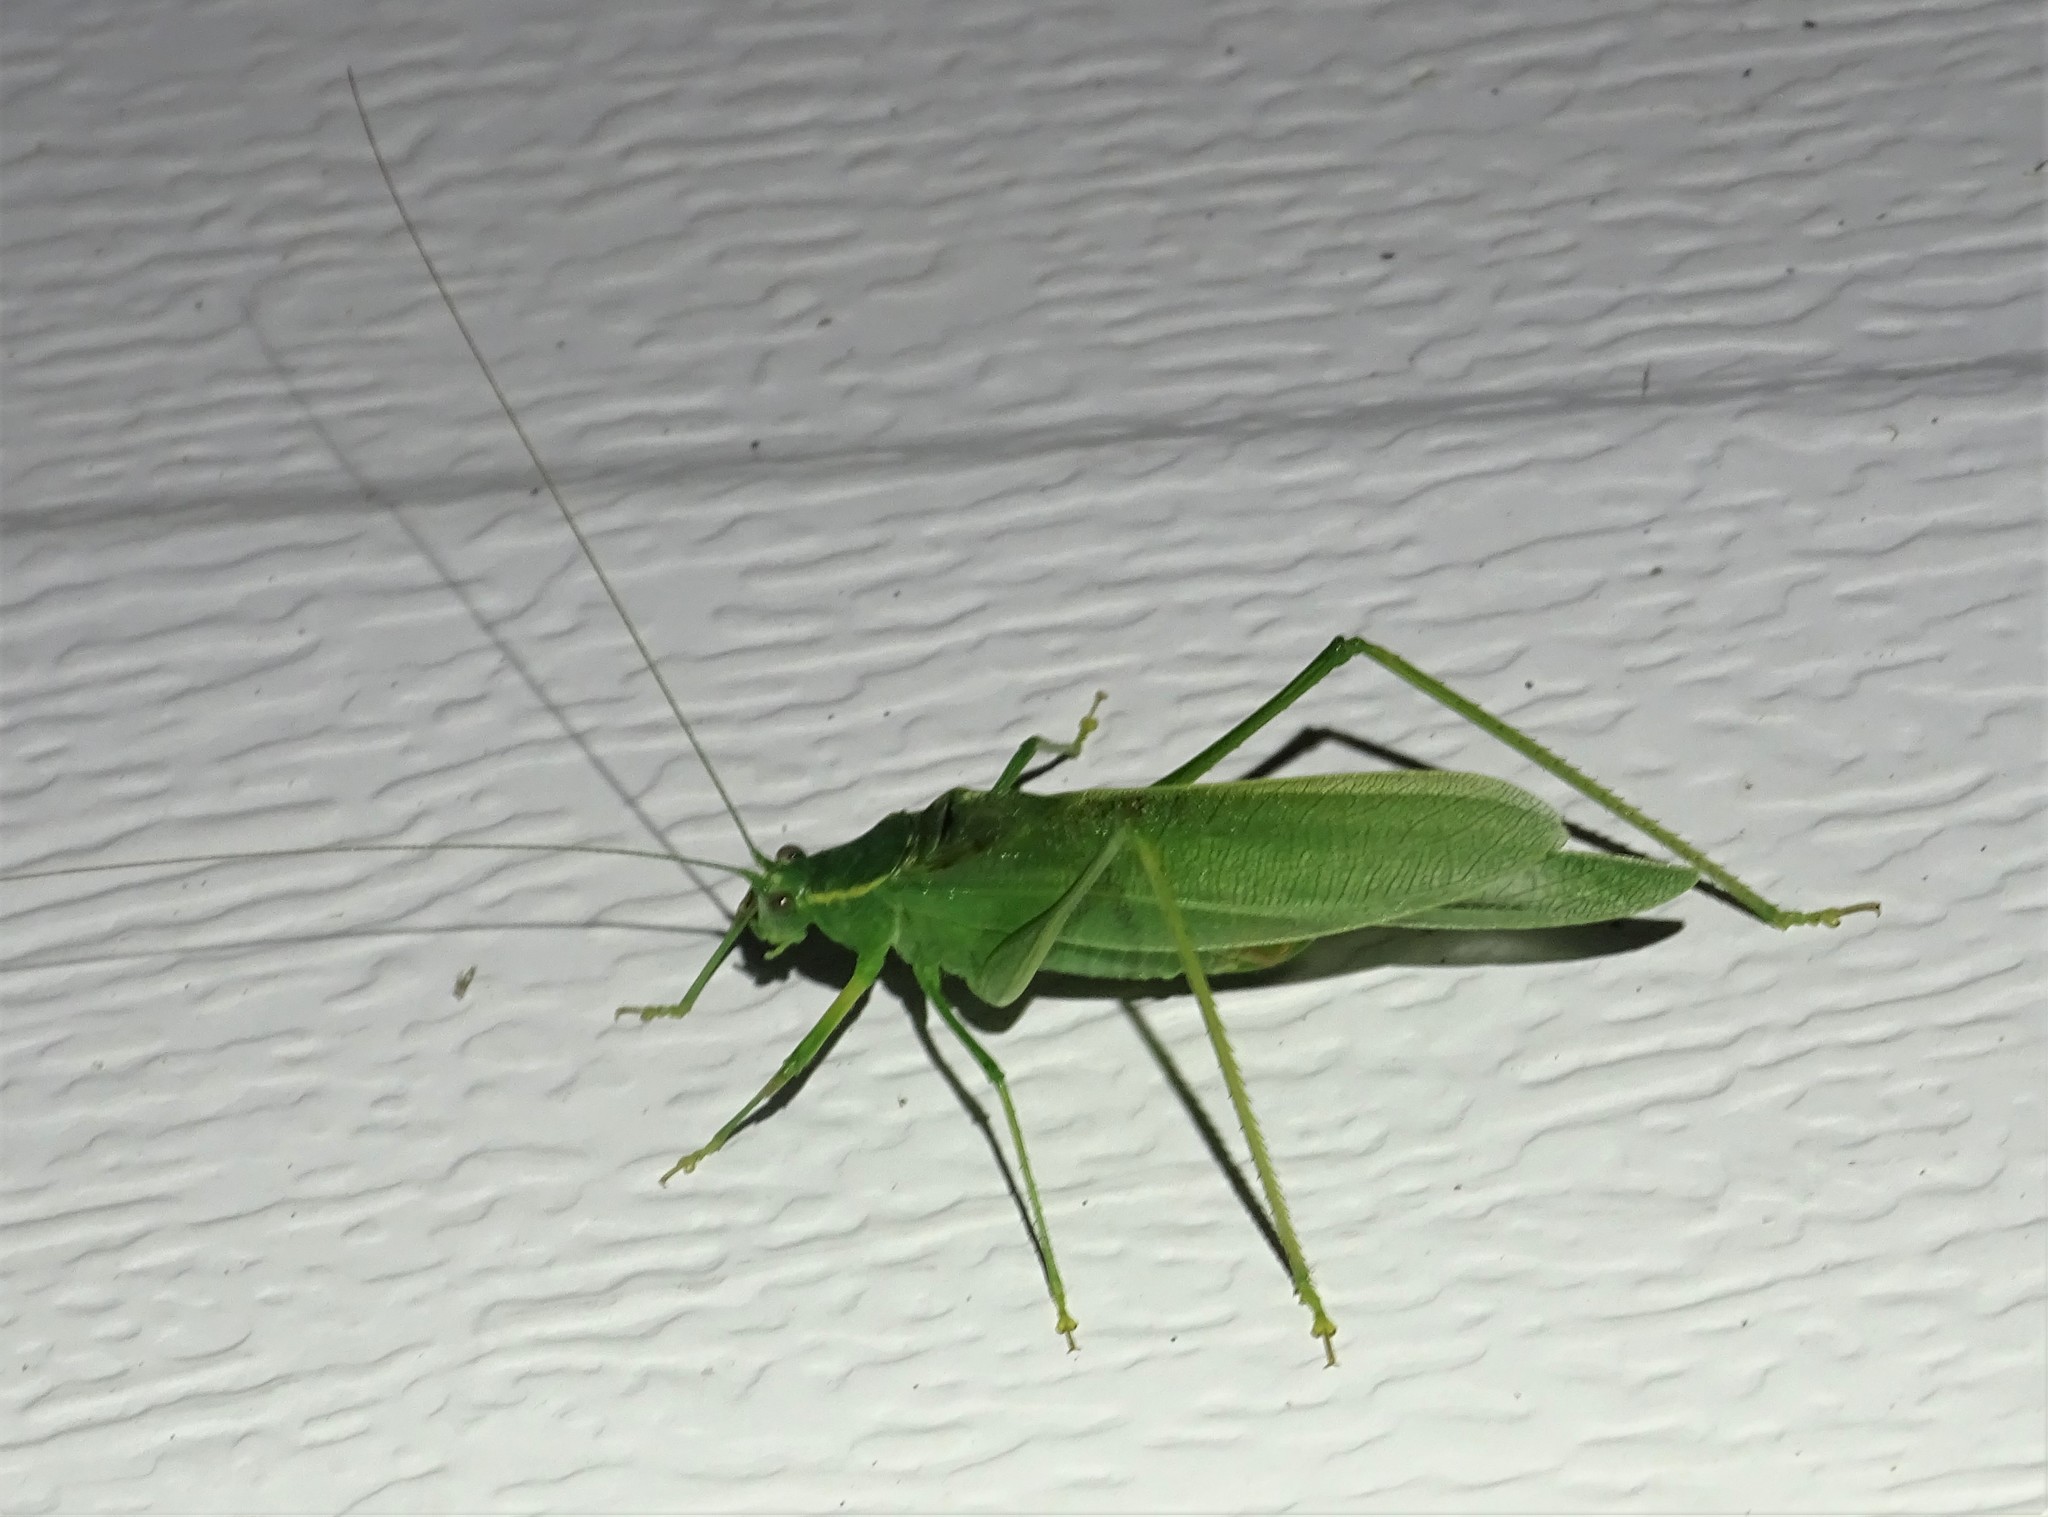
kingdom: Animalia
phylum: Arthropoda
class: Insecta
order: Orthoptera
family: Tettigoniidae
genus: Scudderia
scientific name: Scudderia septentrionalis
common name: Northern bush-katydid
